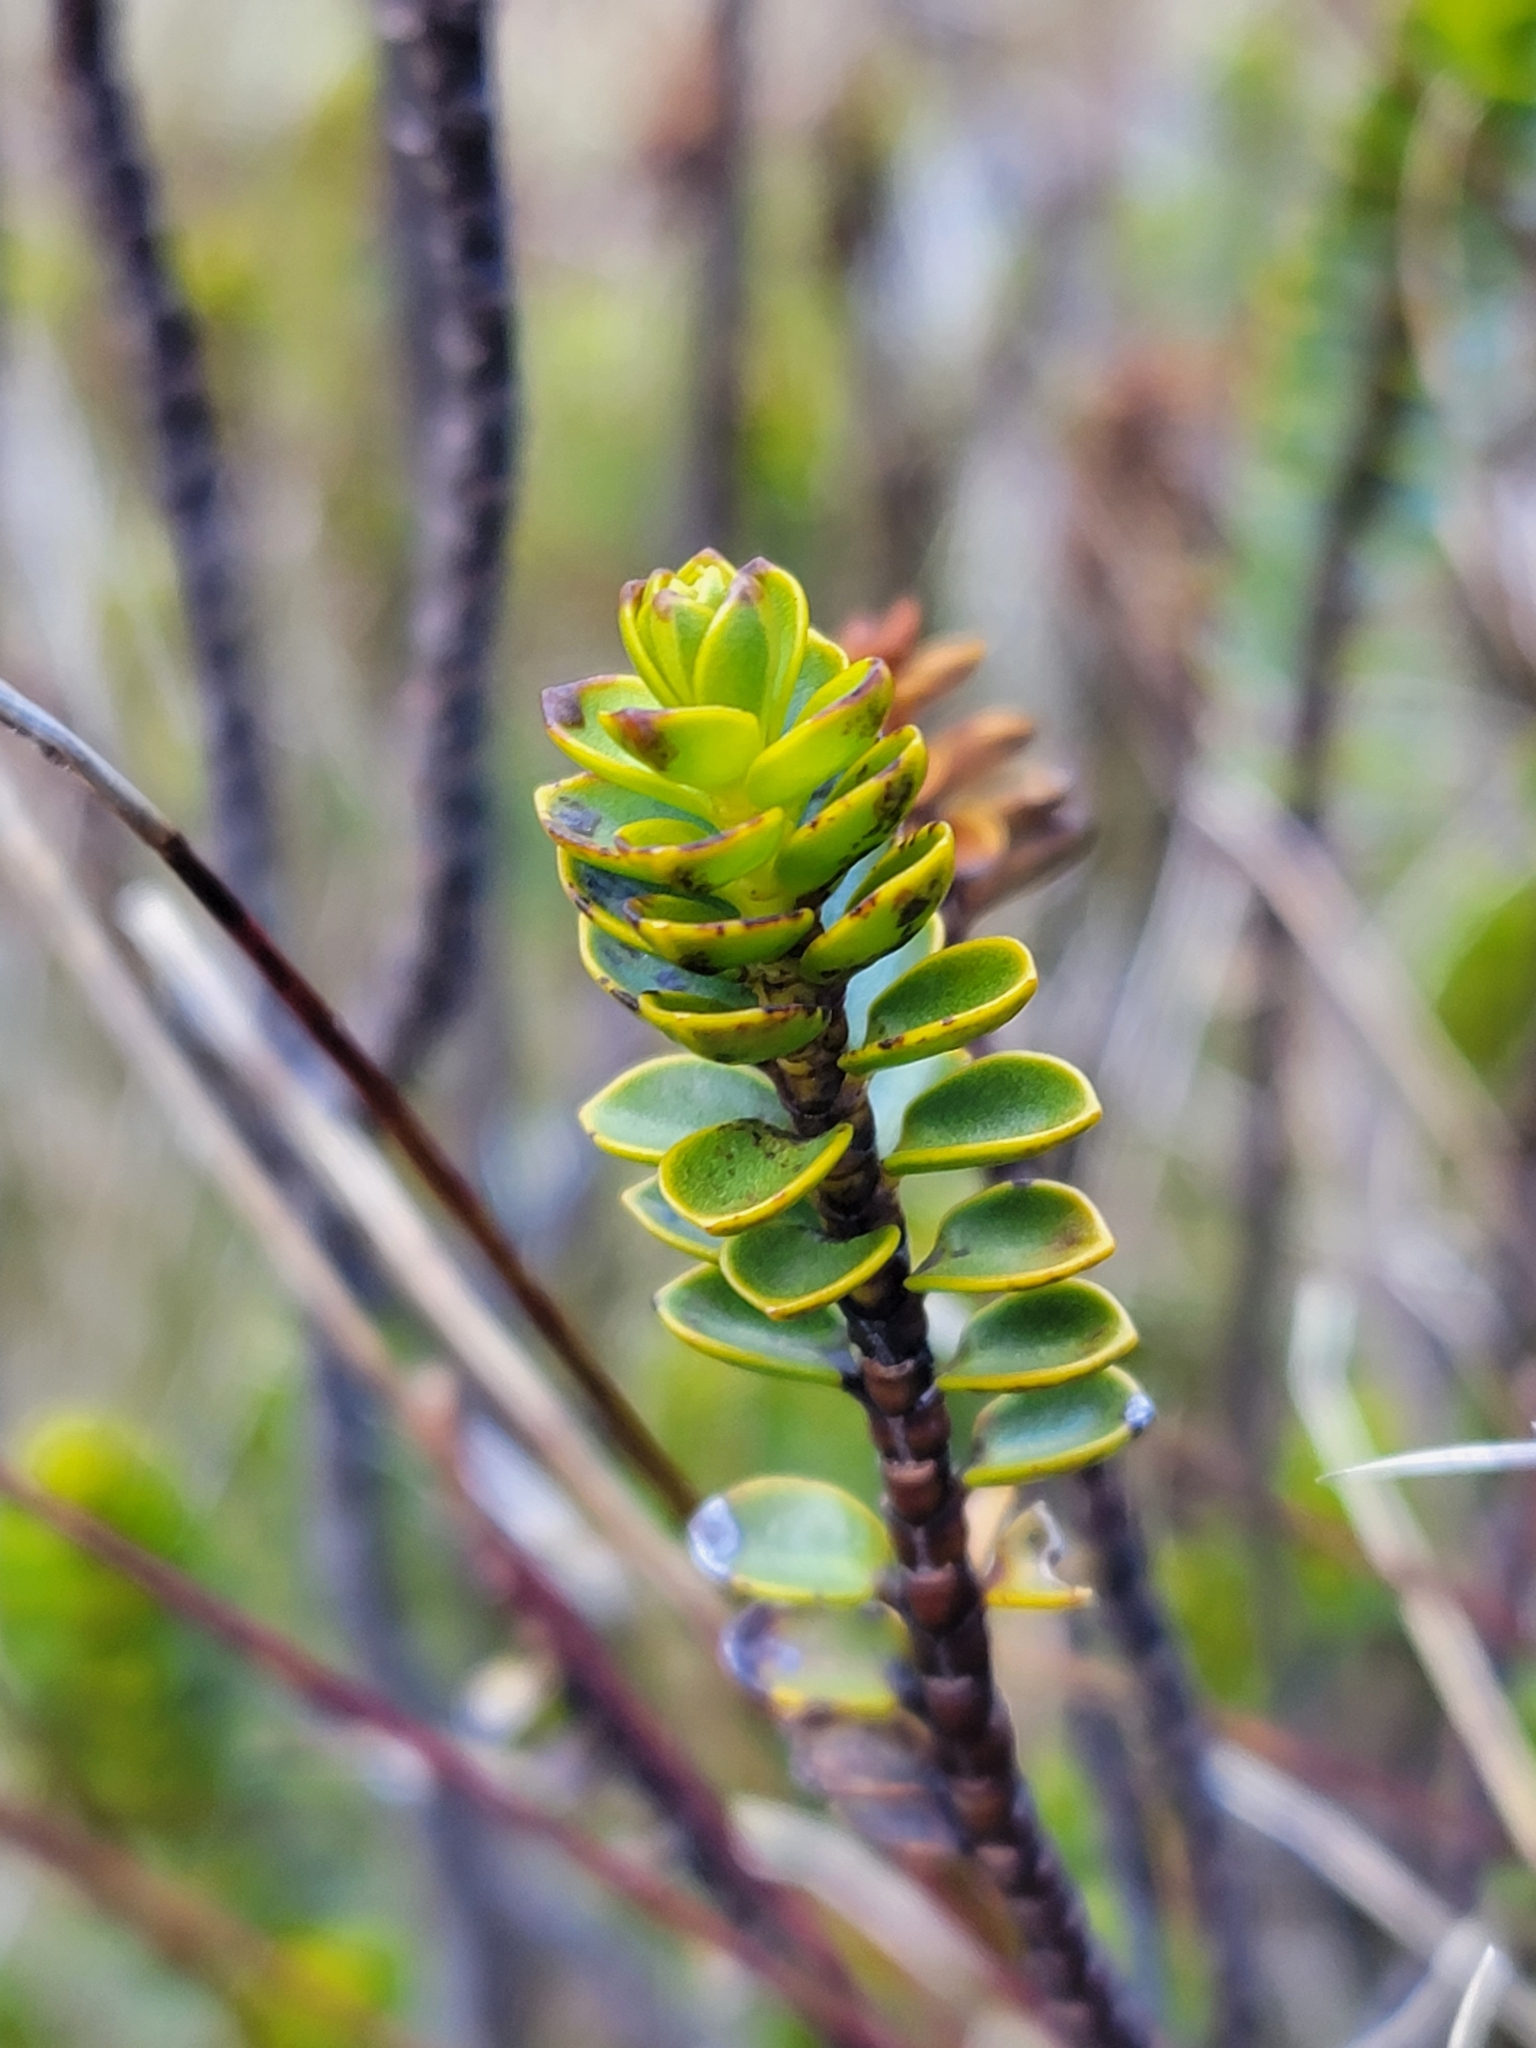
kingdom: Plantae
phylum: Tracheophyta
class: Magnoliopsida
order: Lamiales
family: Plantaginaceae
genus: Veronica
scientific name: Veronica pauciramosa
